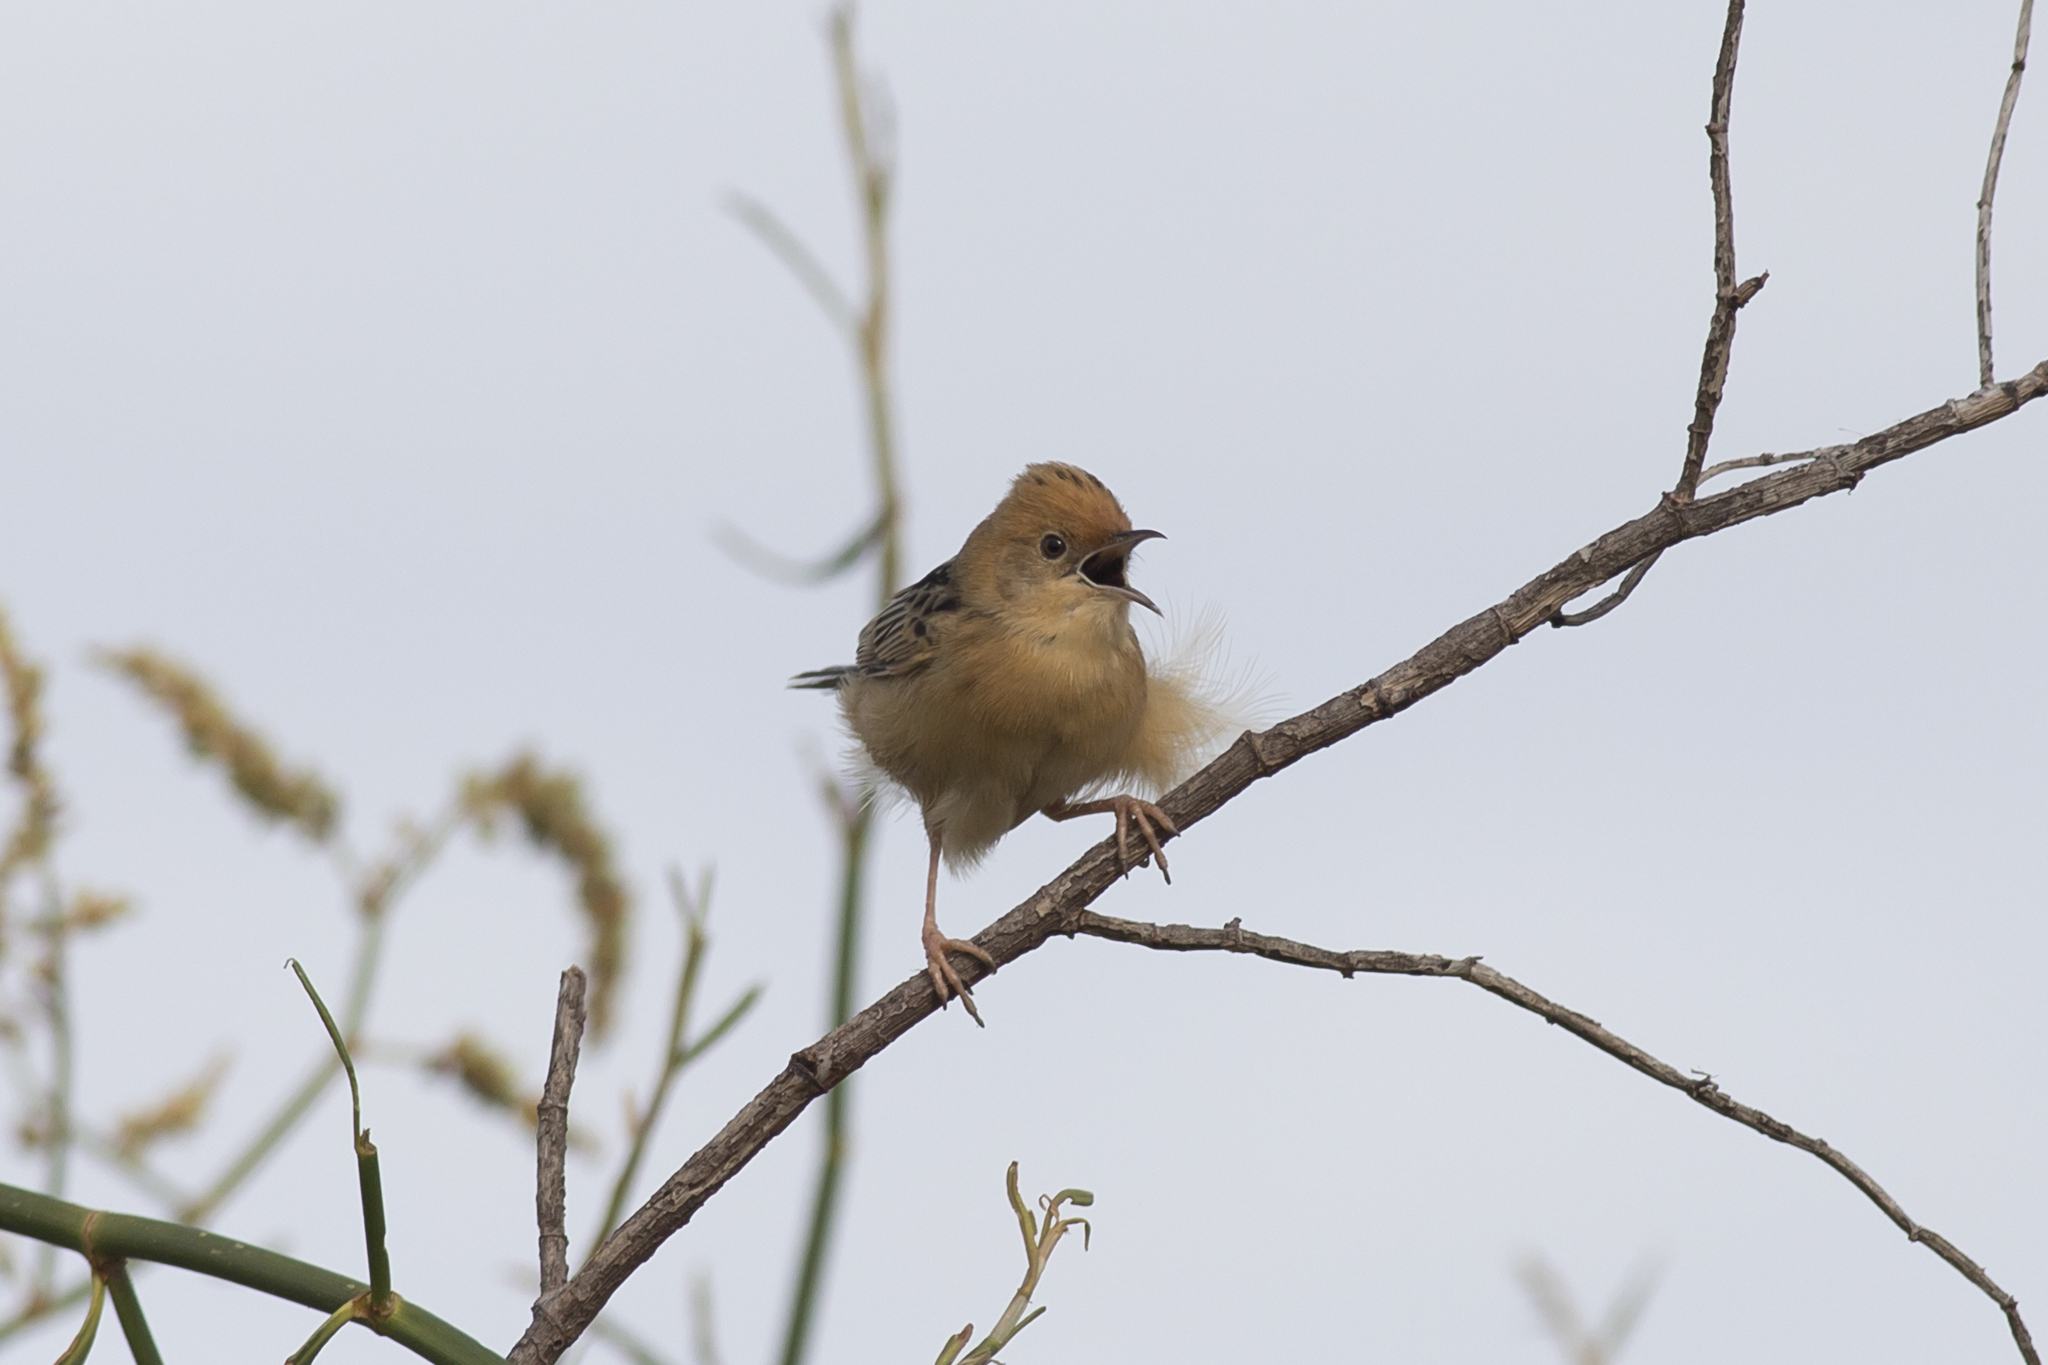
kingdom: Animalia
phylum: Chordata
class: Aves
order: Passeriformes
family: Cisticolidae
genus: Cisticola
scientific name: Cisticola exilis
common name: Golden-headed cisticola
